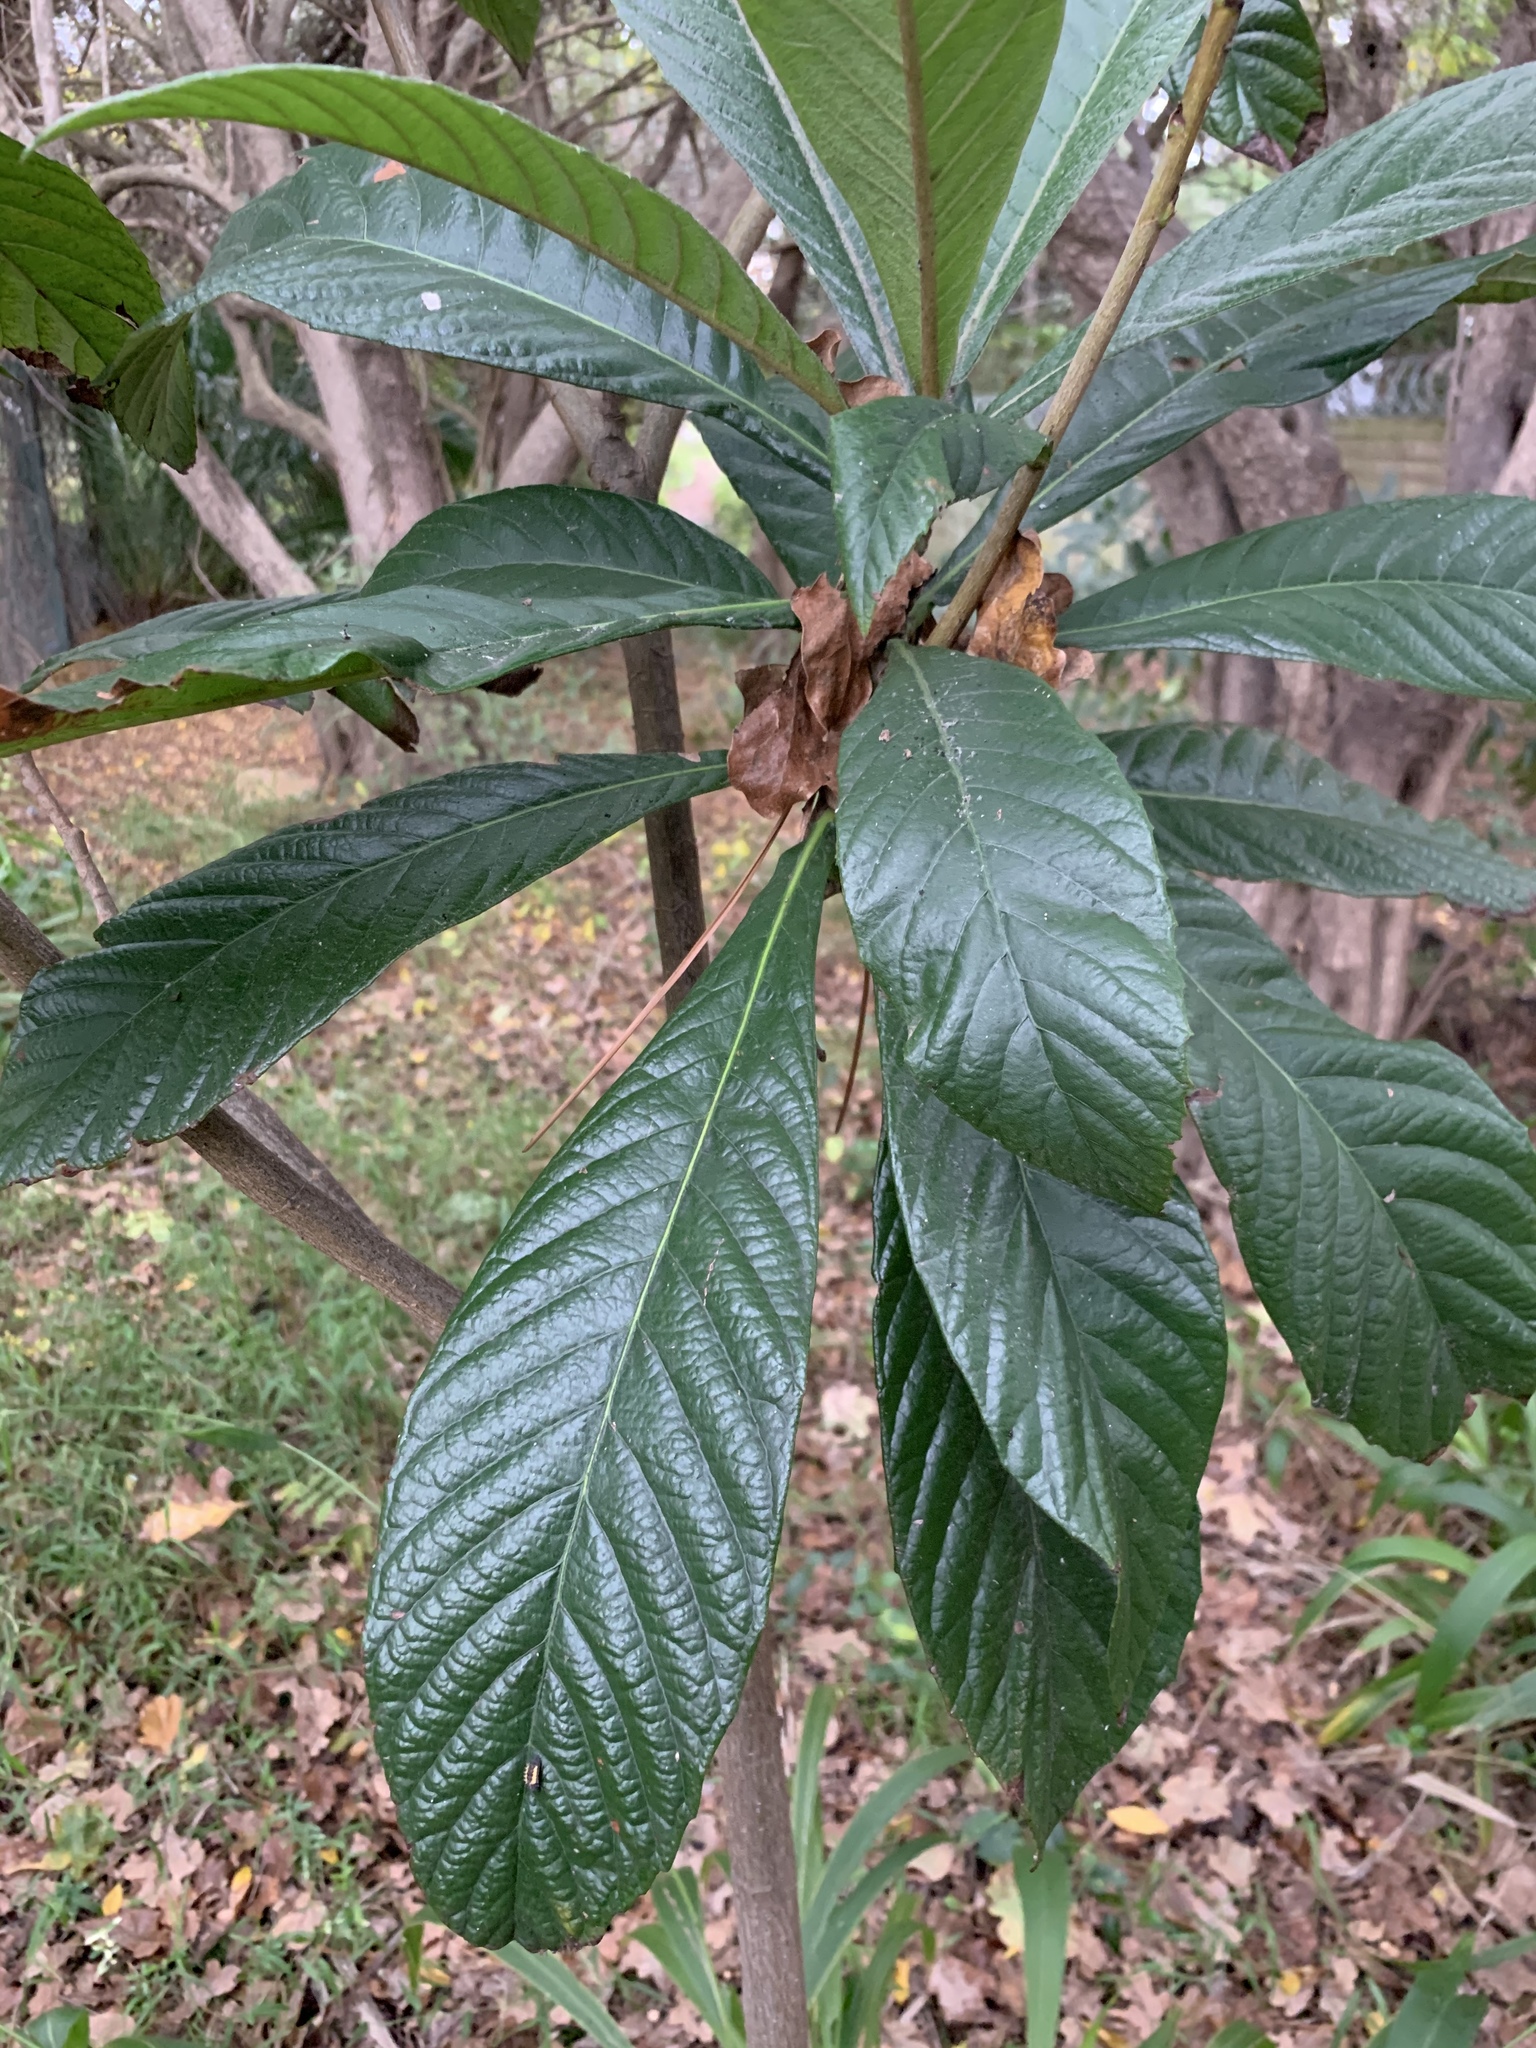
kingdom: Plantae
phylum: Tracheophyta
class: Magnoliopsida
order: Rosales
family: Rosaceae
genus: Rhaphiolepis
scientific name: Rhaphiolepis bibas
